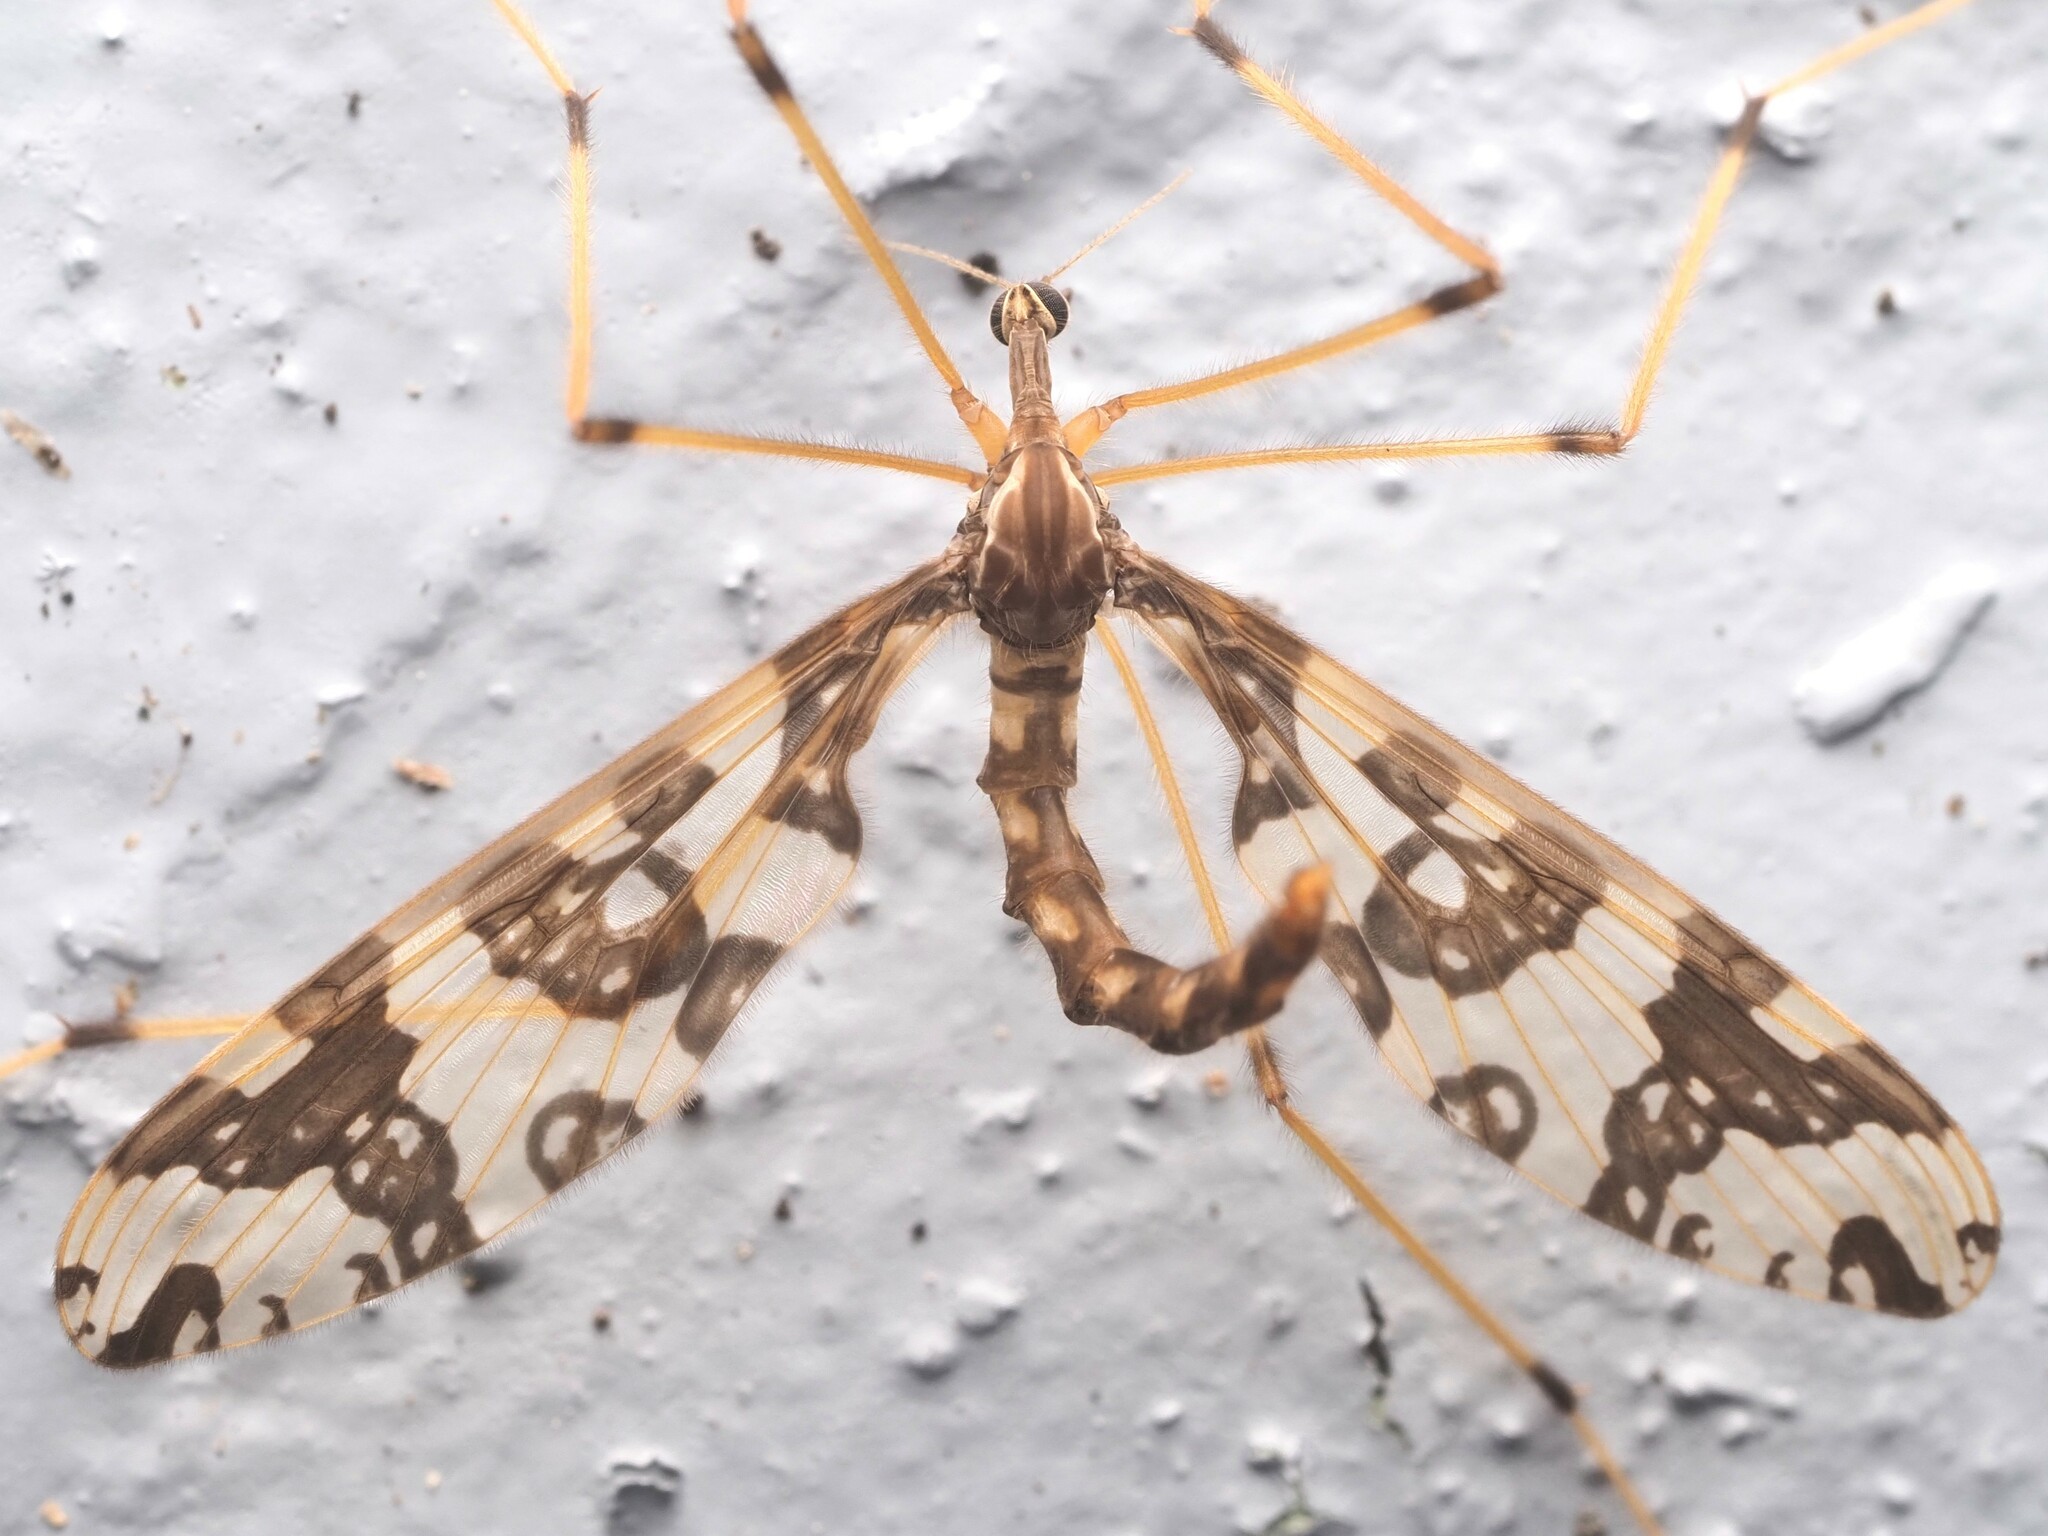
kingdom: Animalia
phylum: Arthropoda
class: Insecta
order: Diptera
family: Tanyderidae
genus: Tanyderus
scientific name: Tanyderus annuliferus
